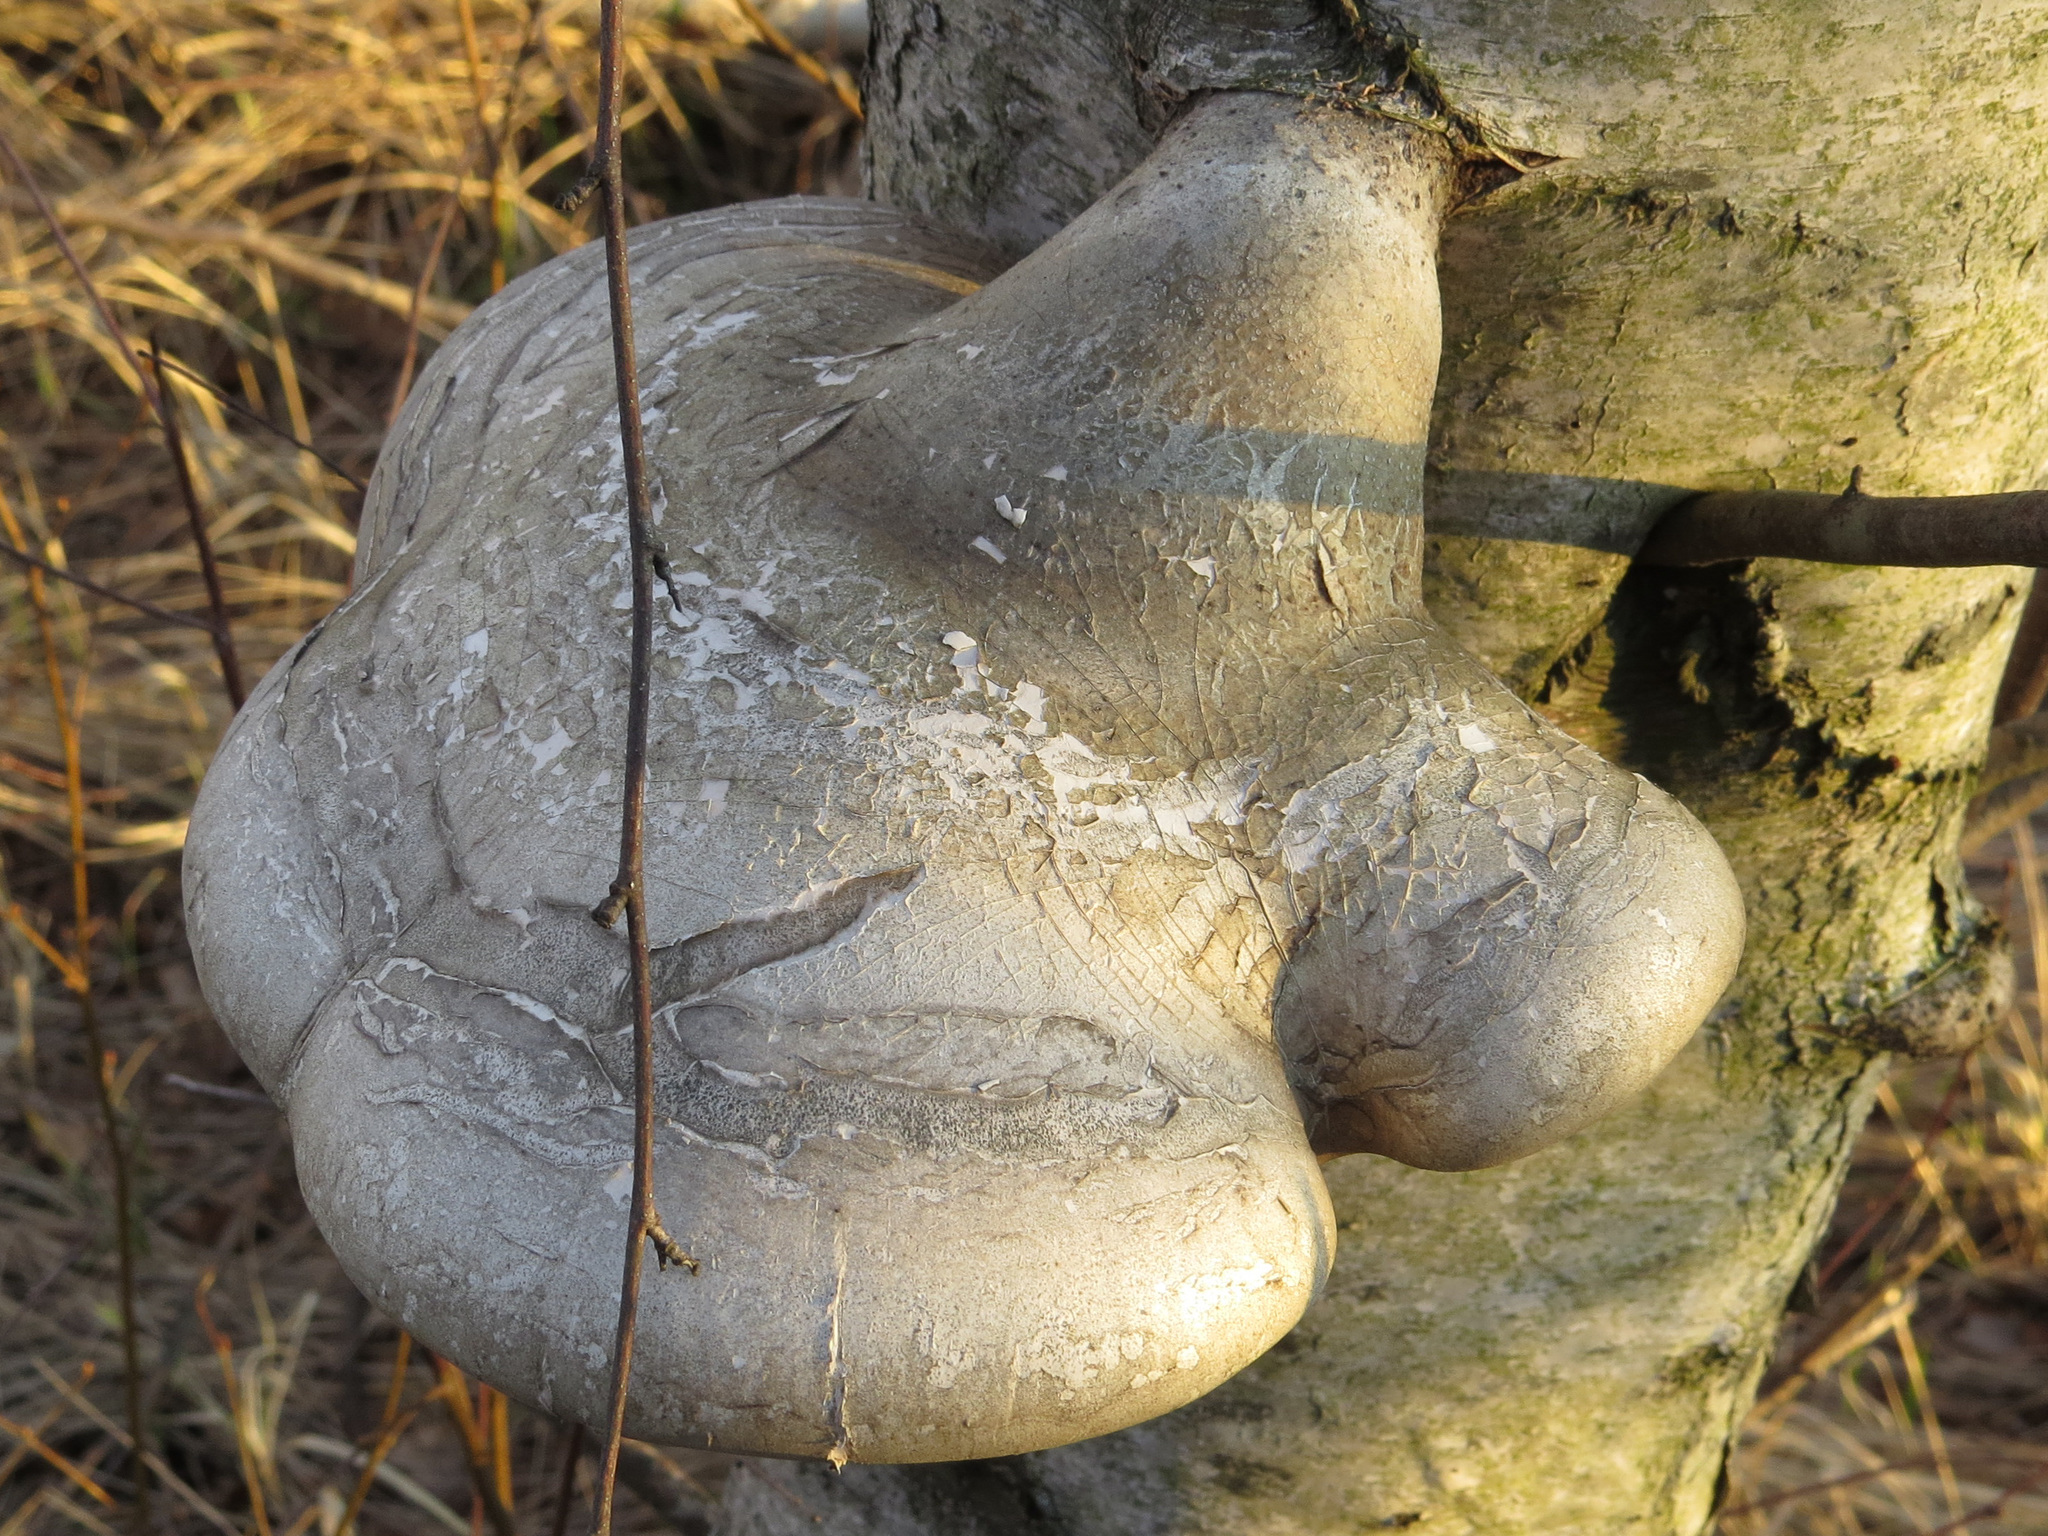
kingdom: Fungi
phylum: Basidiomycota
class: Agaricomycetes
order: Polyporales
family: Fomitopsidaceae
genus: Fomitopsis
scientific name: Fomitopsis betulina
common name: Birch polypore
